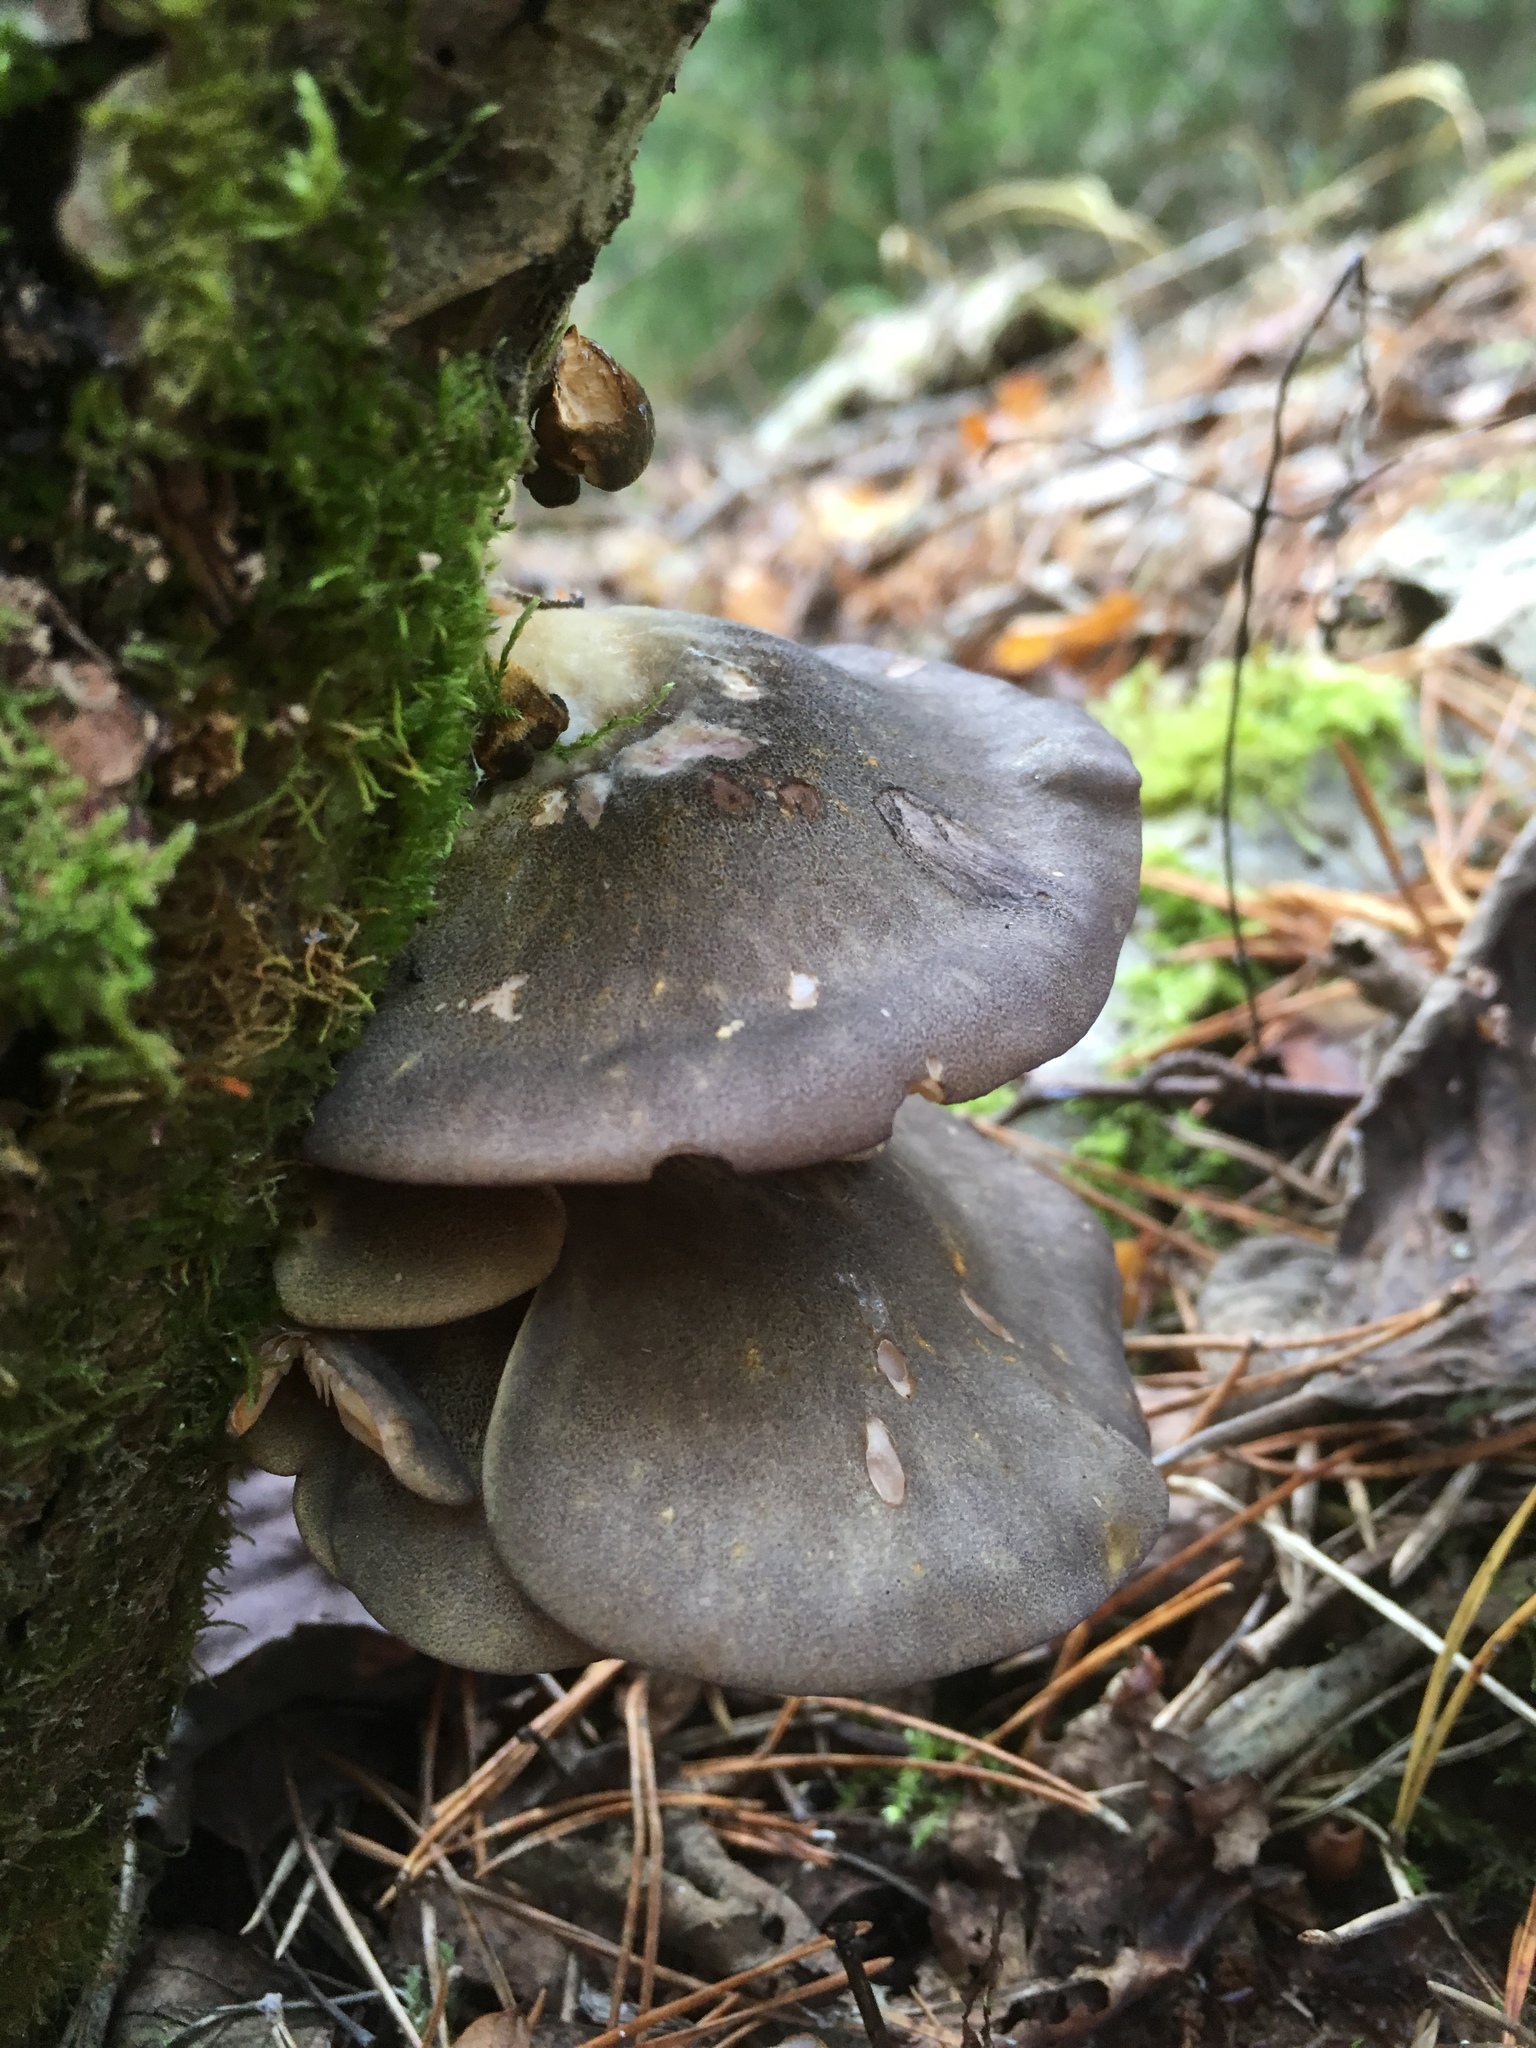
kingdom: Fungi
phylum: Basidiomycota
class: Agaricomycetes
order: Agaricales
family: Pleurotaceae
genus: Pleurotus
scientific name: Pleurotus ostreatus
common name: Oyster mushroom
